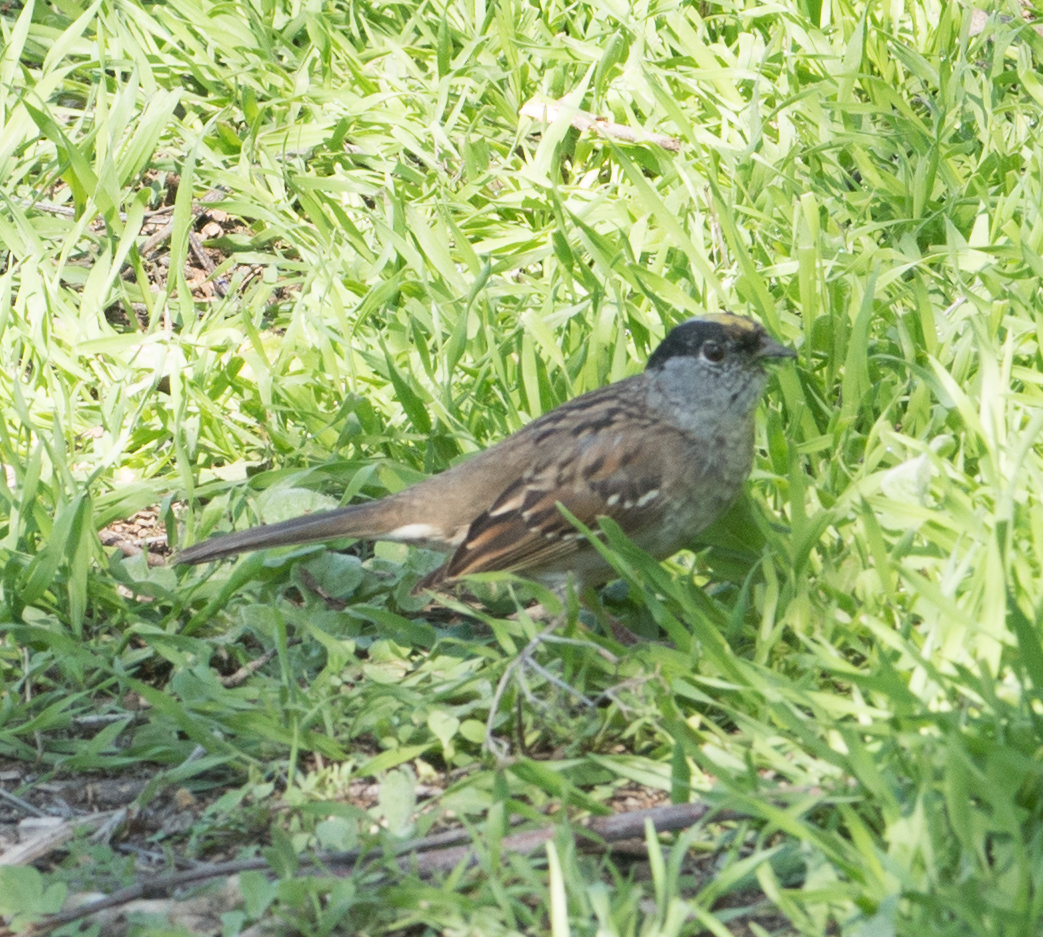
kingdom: Animalia
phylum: Chordata
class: Aves
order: Passeriformes
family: Passerellidae
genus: Zonotrichia
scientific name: Zonotrichia atricapilla
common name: Golden-crowned sparrow
